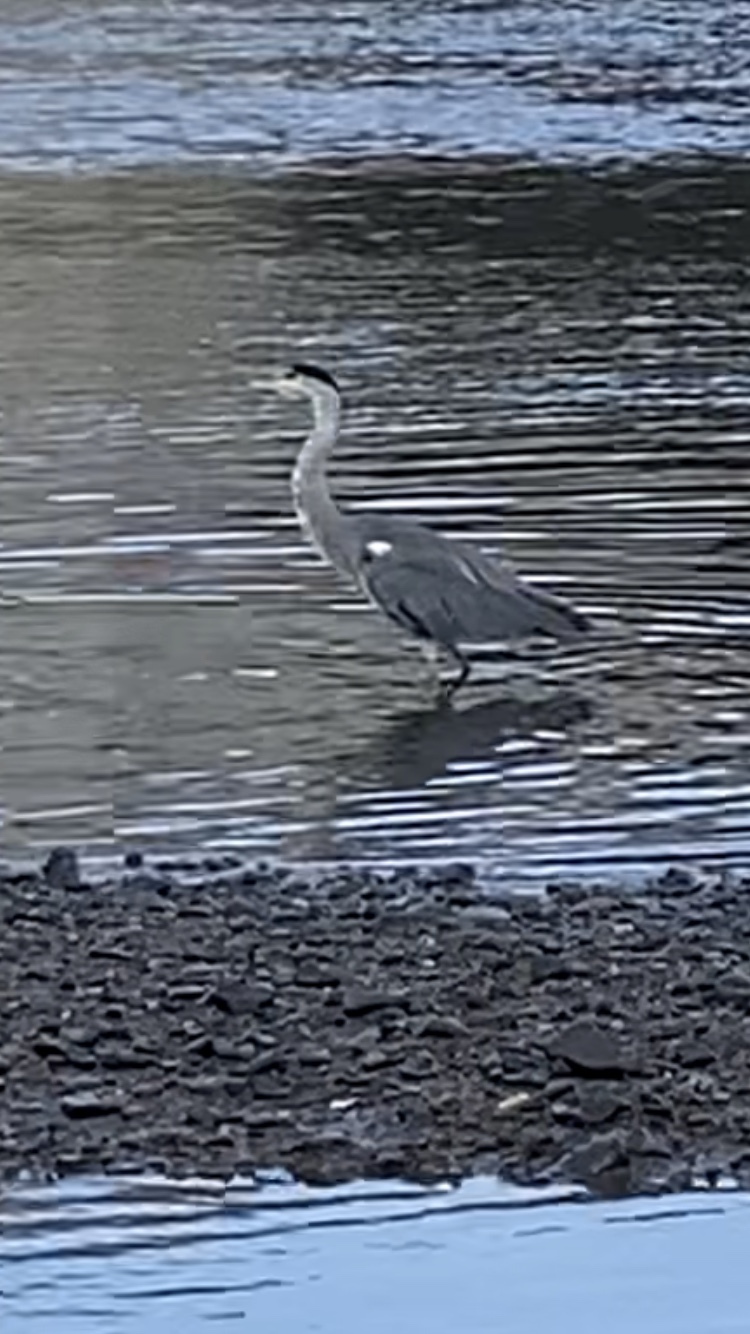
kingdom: Animalia
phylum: Chordata
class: Aves
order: Pelecaniformes
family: Ardeidae
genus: Ardea
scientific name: Ardea cinerea
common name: Grey heron
